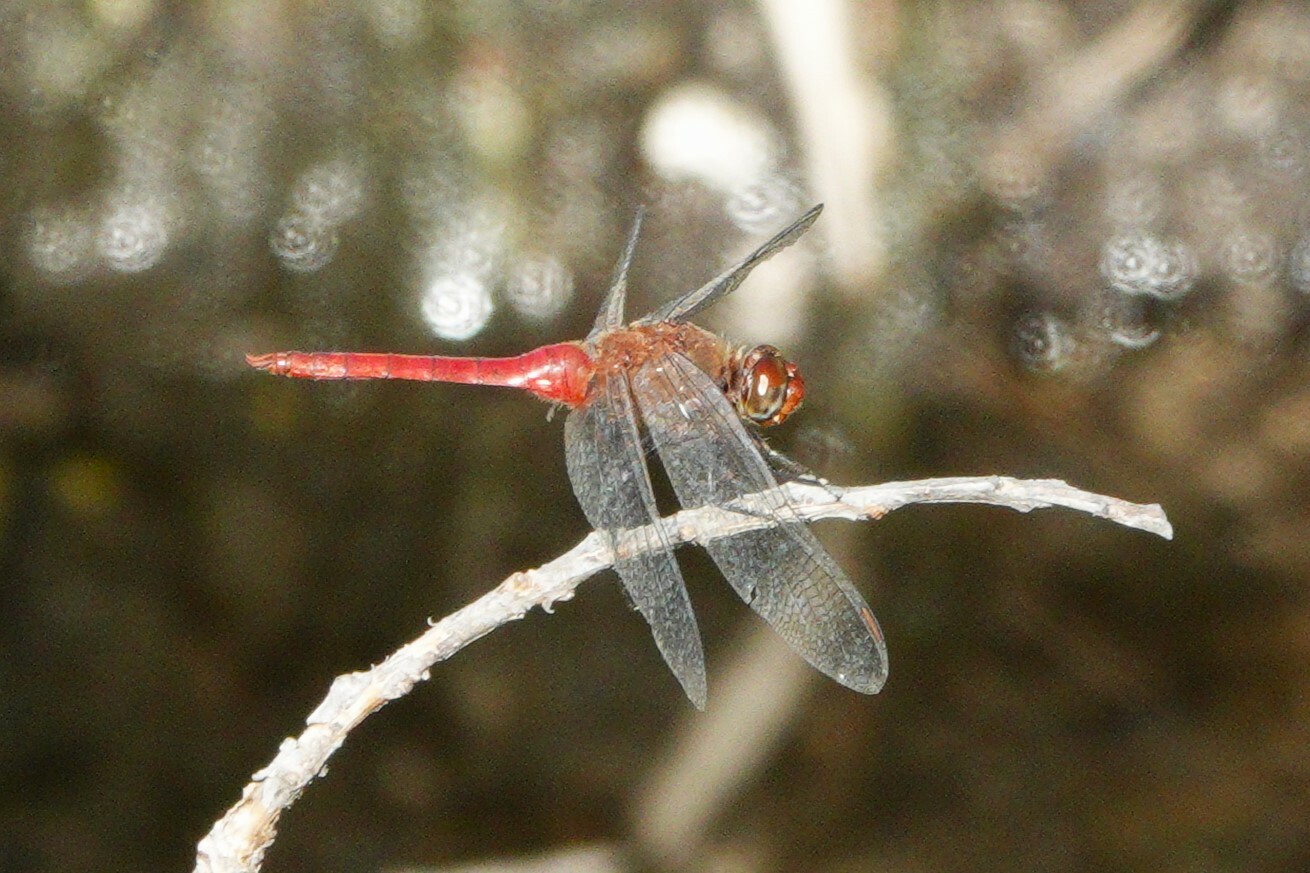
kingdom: Animalia
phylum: Arthropoda
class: Insecta
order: Odonata
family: Libellulidae
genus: Brachymesia
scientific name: Brachymesia furcata
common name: Red-taled pennant
